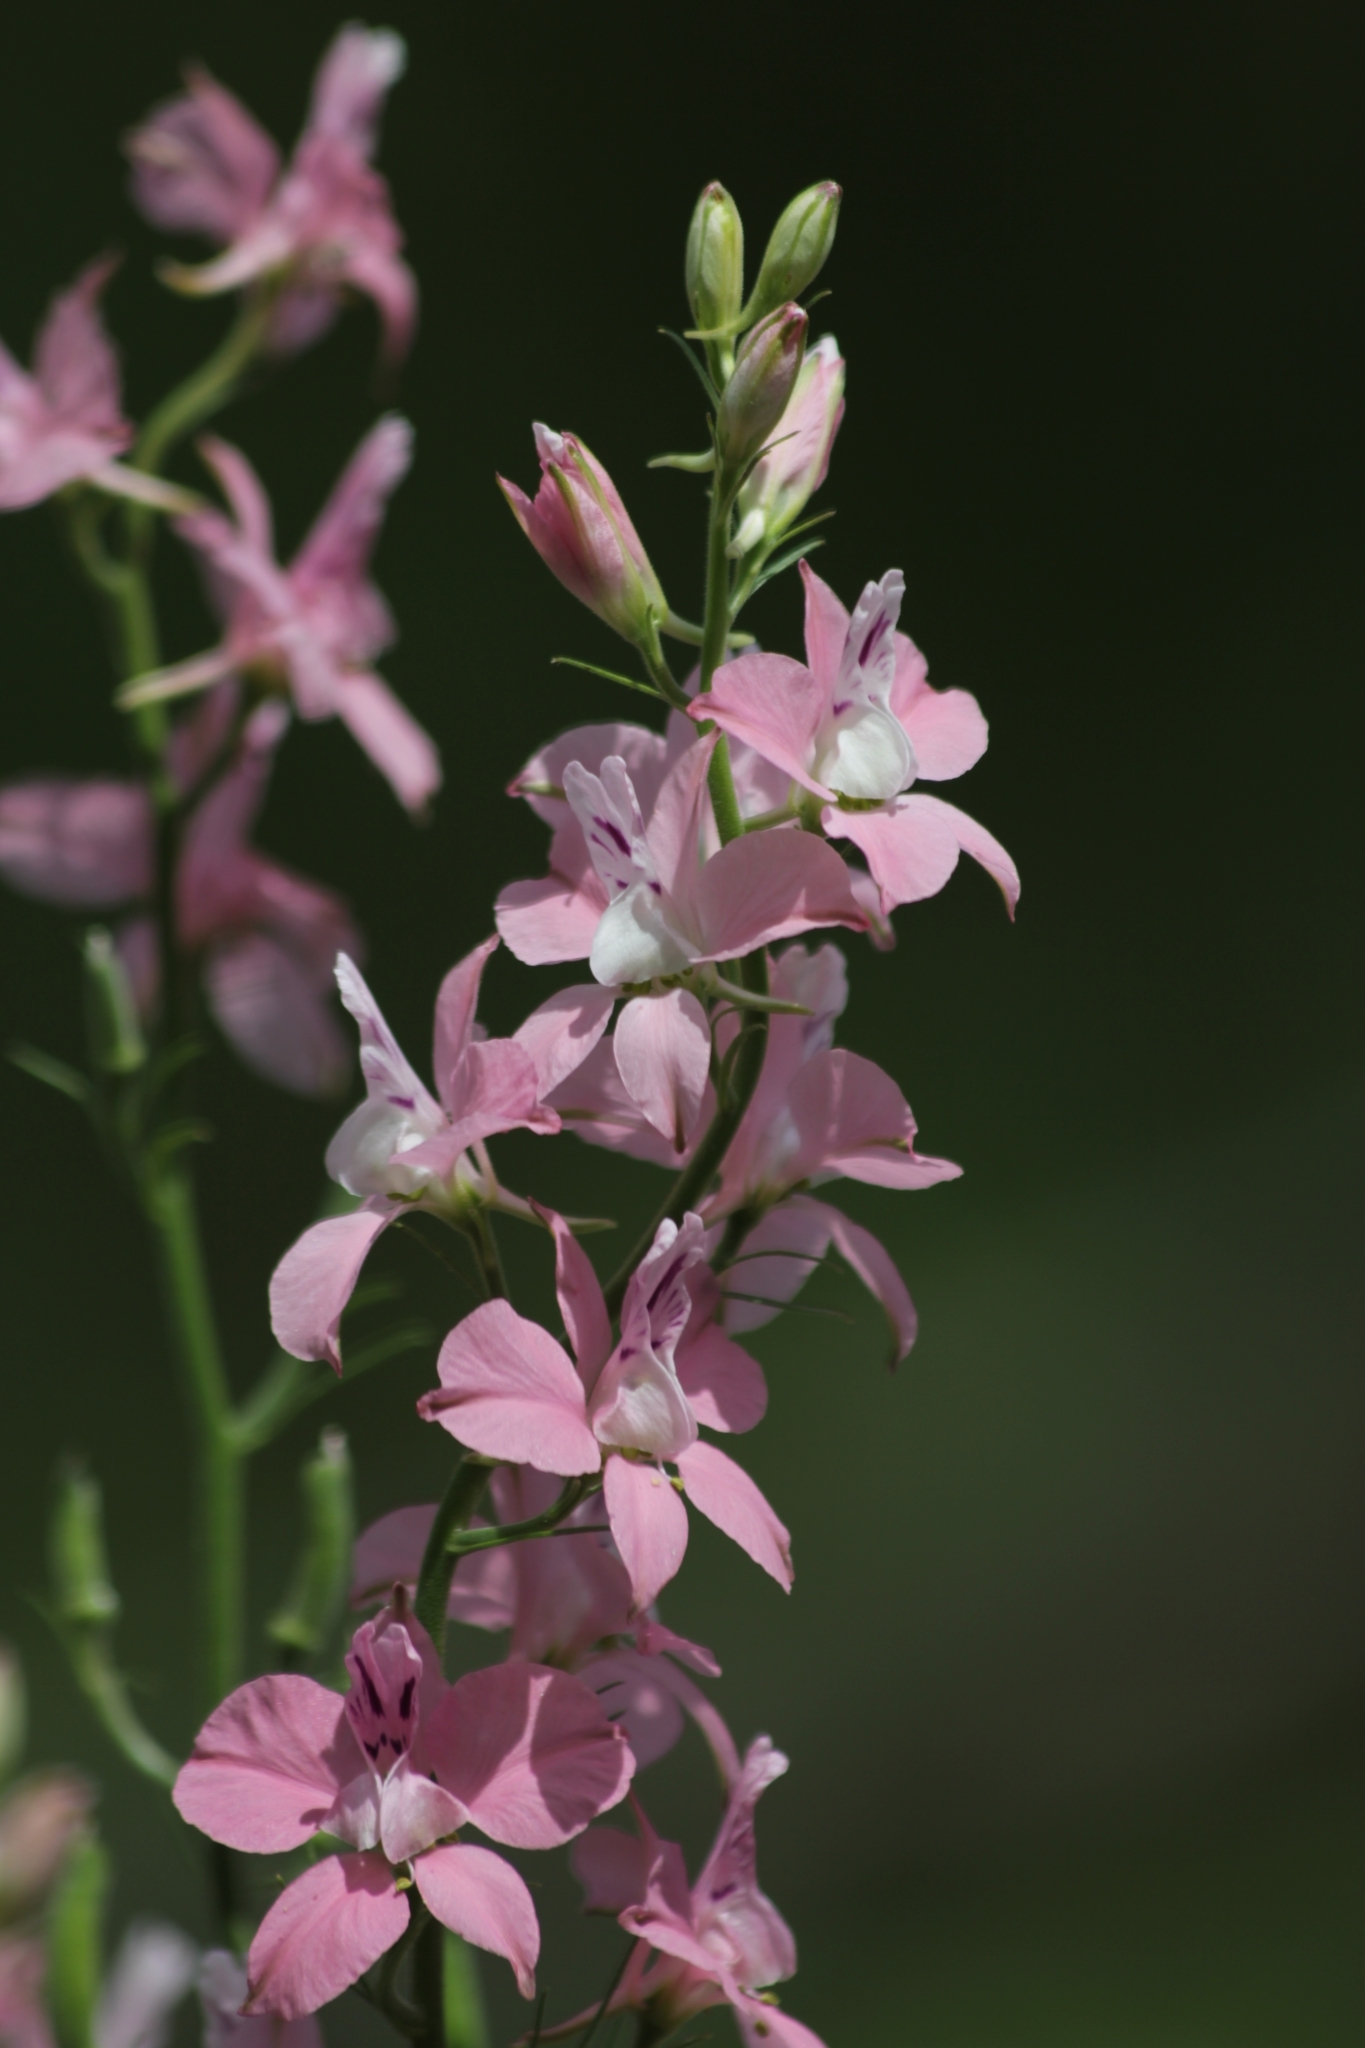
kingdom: Plantae
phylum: Tracheophyta
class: Magnoliopsida
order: Ranunculales
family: Ranunculaceae
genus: Delphinium
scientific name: Delphinium ajacis
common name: Doubtful knight's-spur
